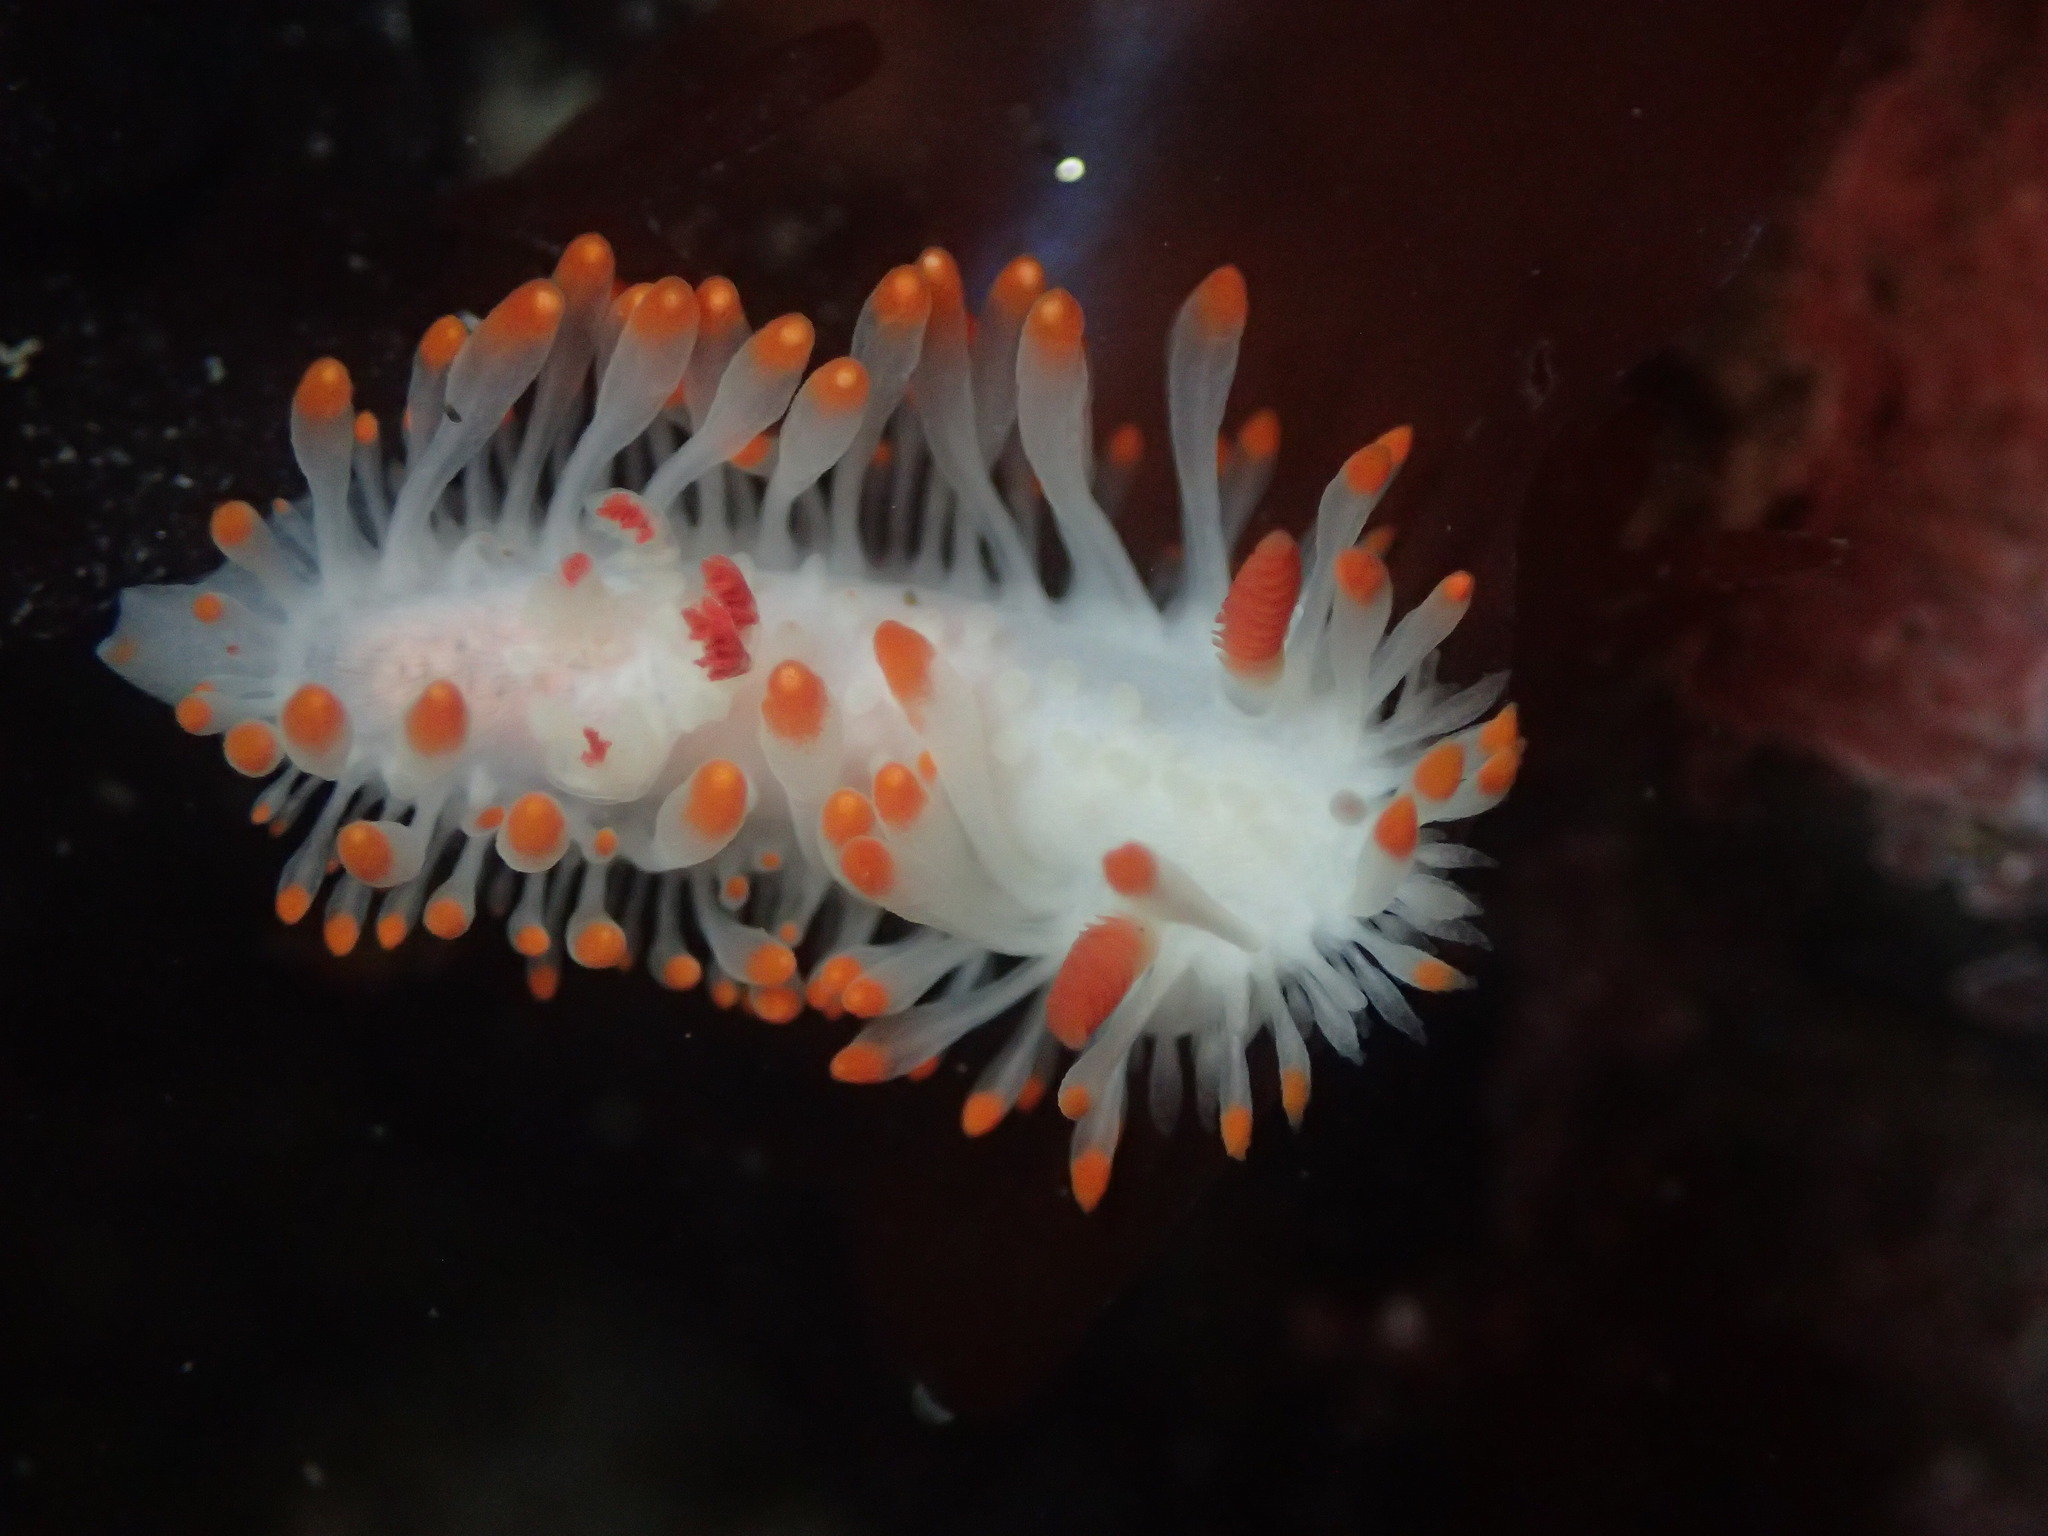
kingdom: Animalia
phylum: Mollusca
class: Gastropoda
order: Nudibranchia
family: Polyceridae
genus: Limacia
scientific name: Limacia cockerelli
